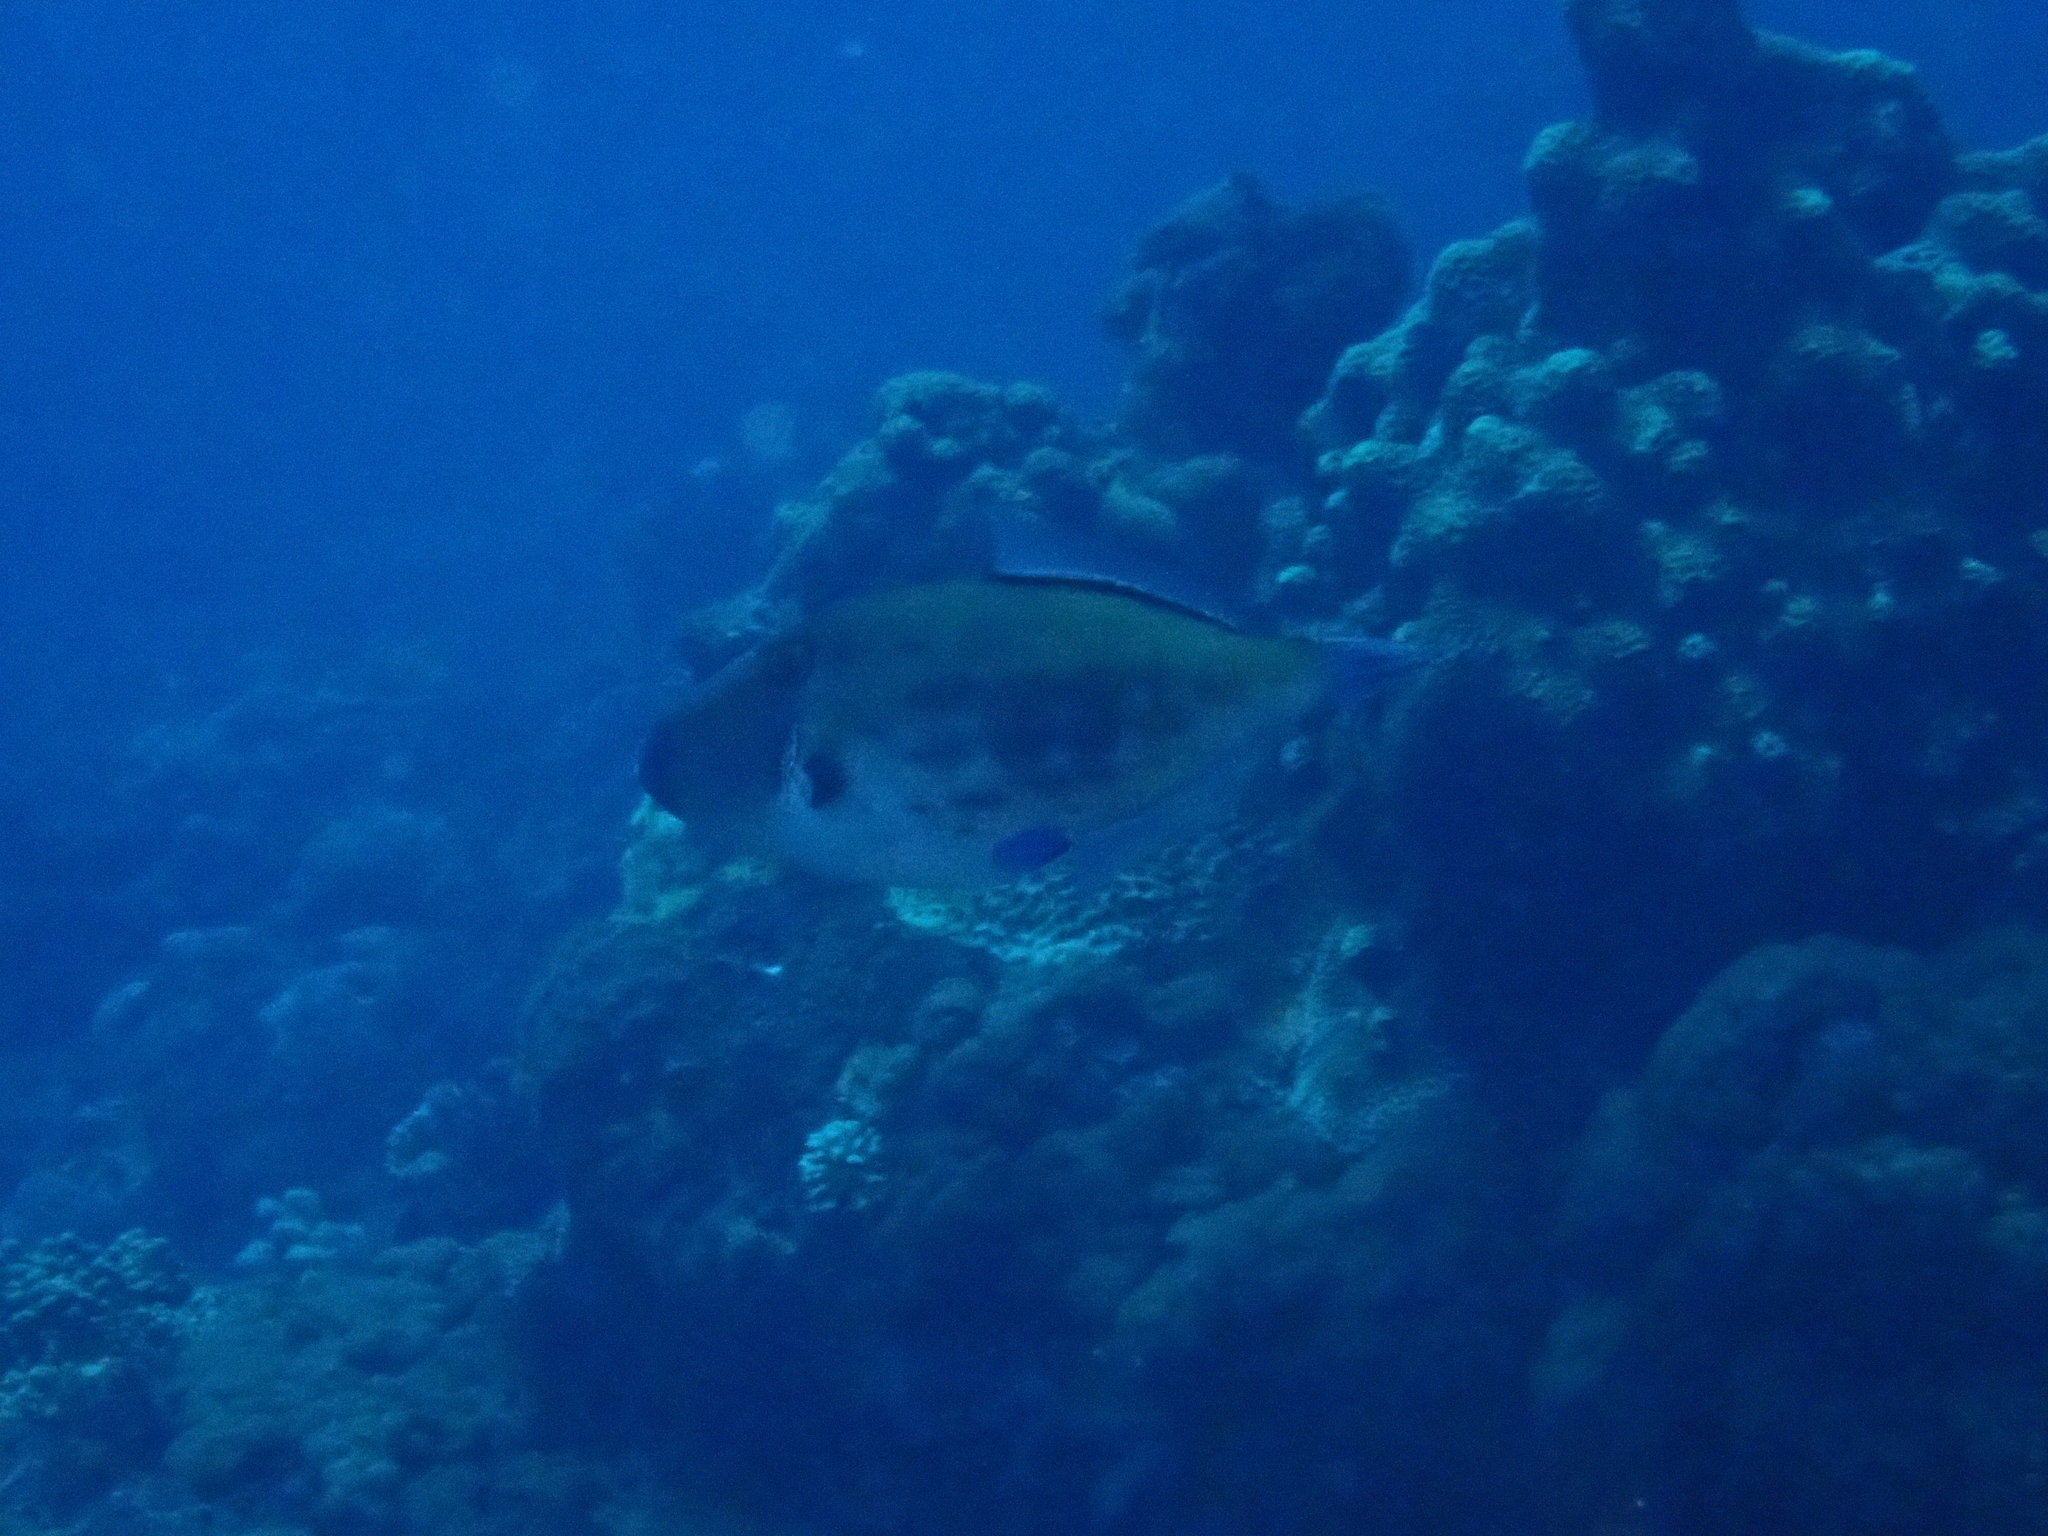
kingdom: Animalia
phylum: Chordata
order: Tetraodontiformes
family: Monacanthidae
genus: Thamnaconus
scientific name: Thamnaconus analis
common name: Darkvent leatherjacket
